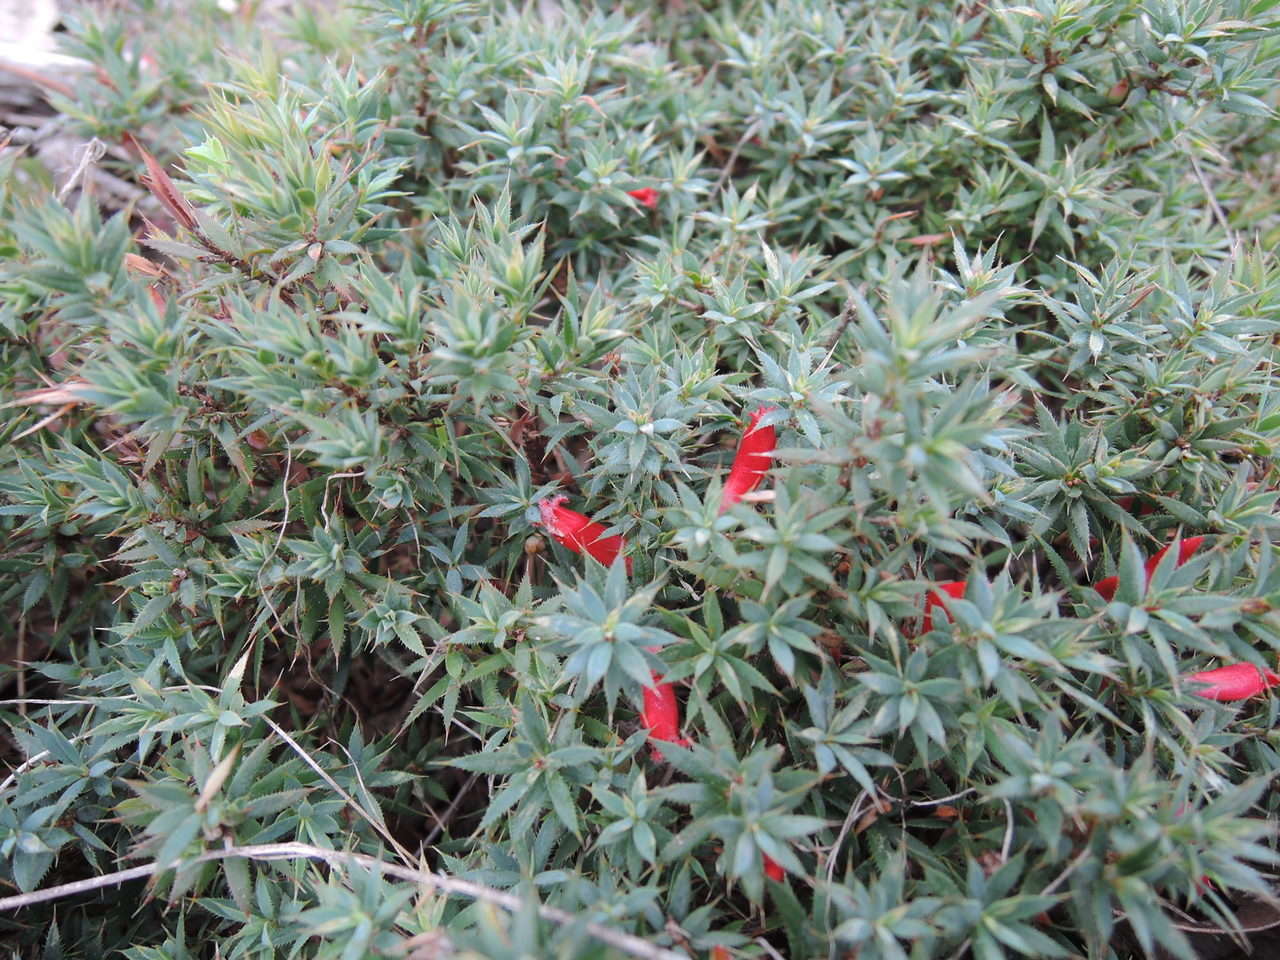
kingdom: Plantae
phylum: Tracheophyta
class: Magnoliopsida
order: Ericales
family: Ericaceae
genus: Styphelia
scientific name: Styphelia humifusa
